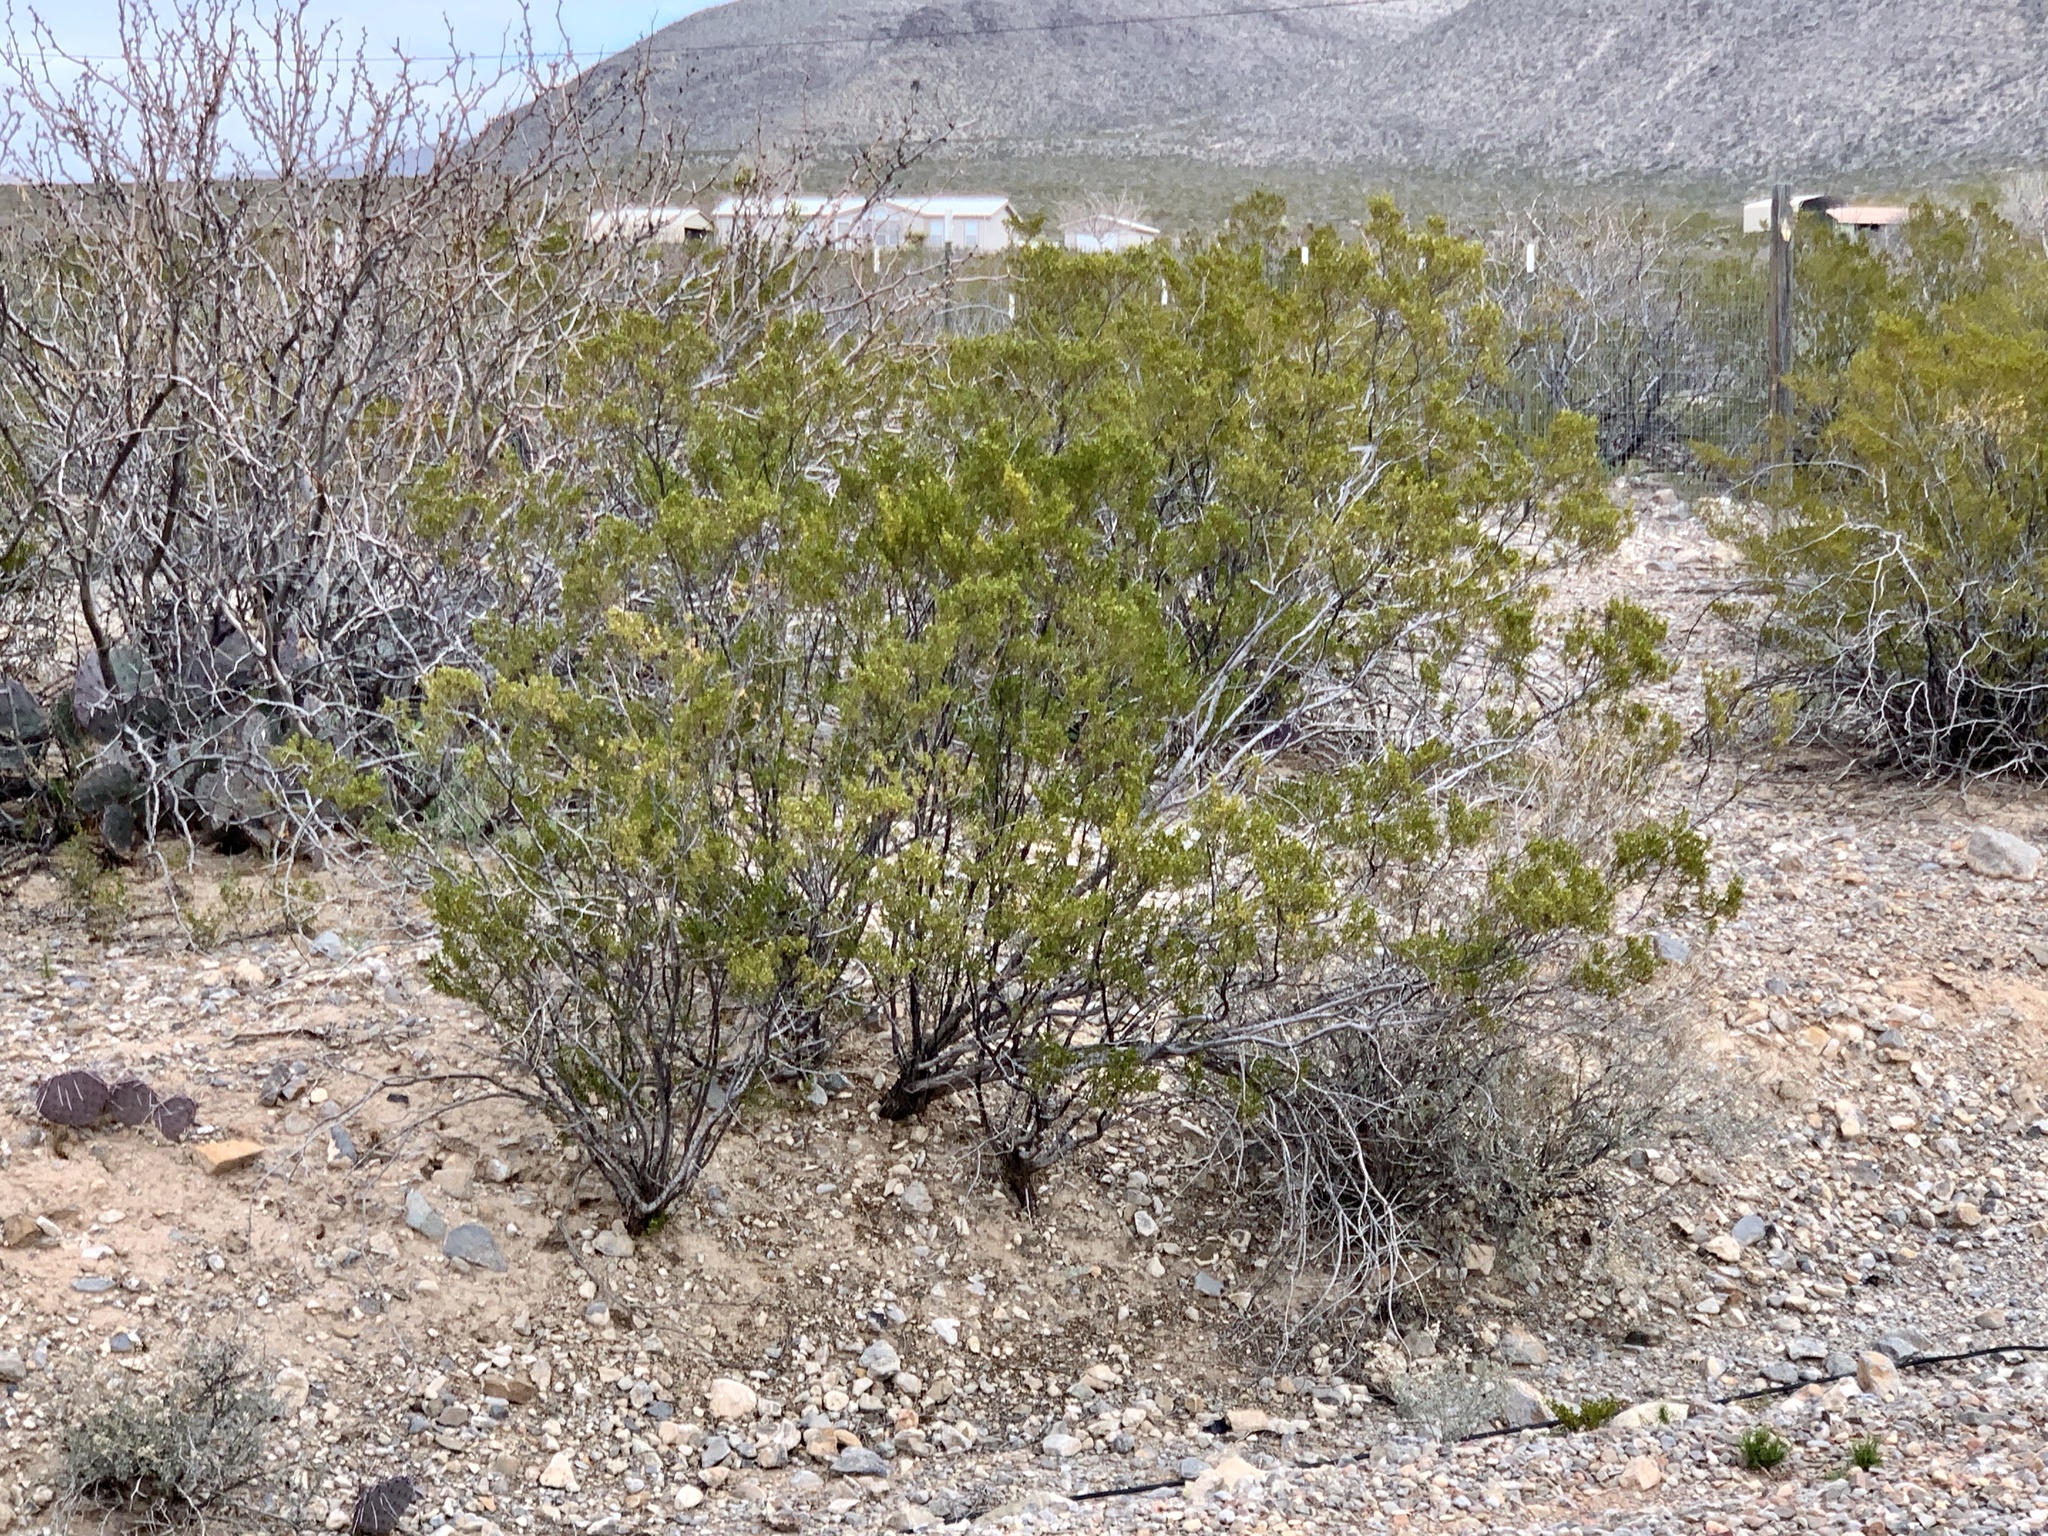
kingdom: Plantae
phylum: Tracheophyta
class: Magnoliopsida
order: Zygophyllales
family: Zygophyllaceae
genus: Larrea
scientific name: Larrea tridentata
